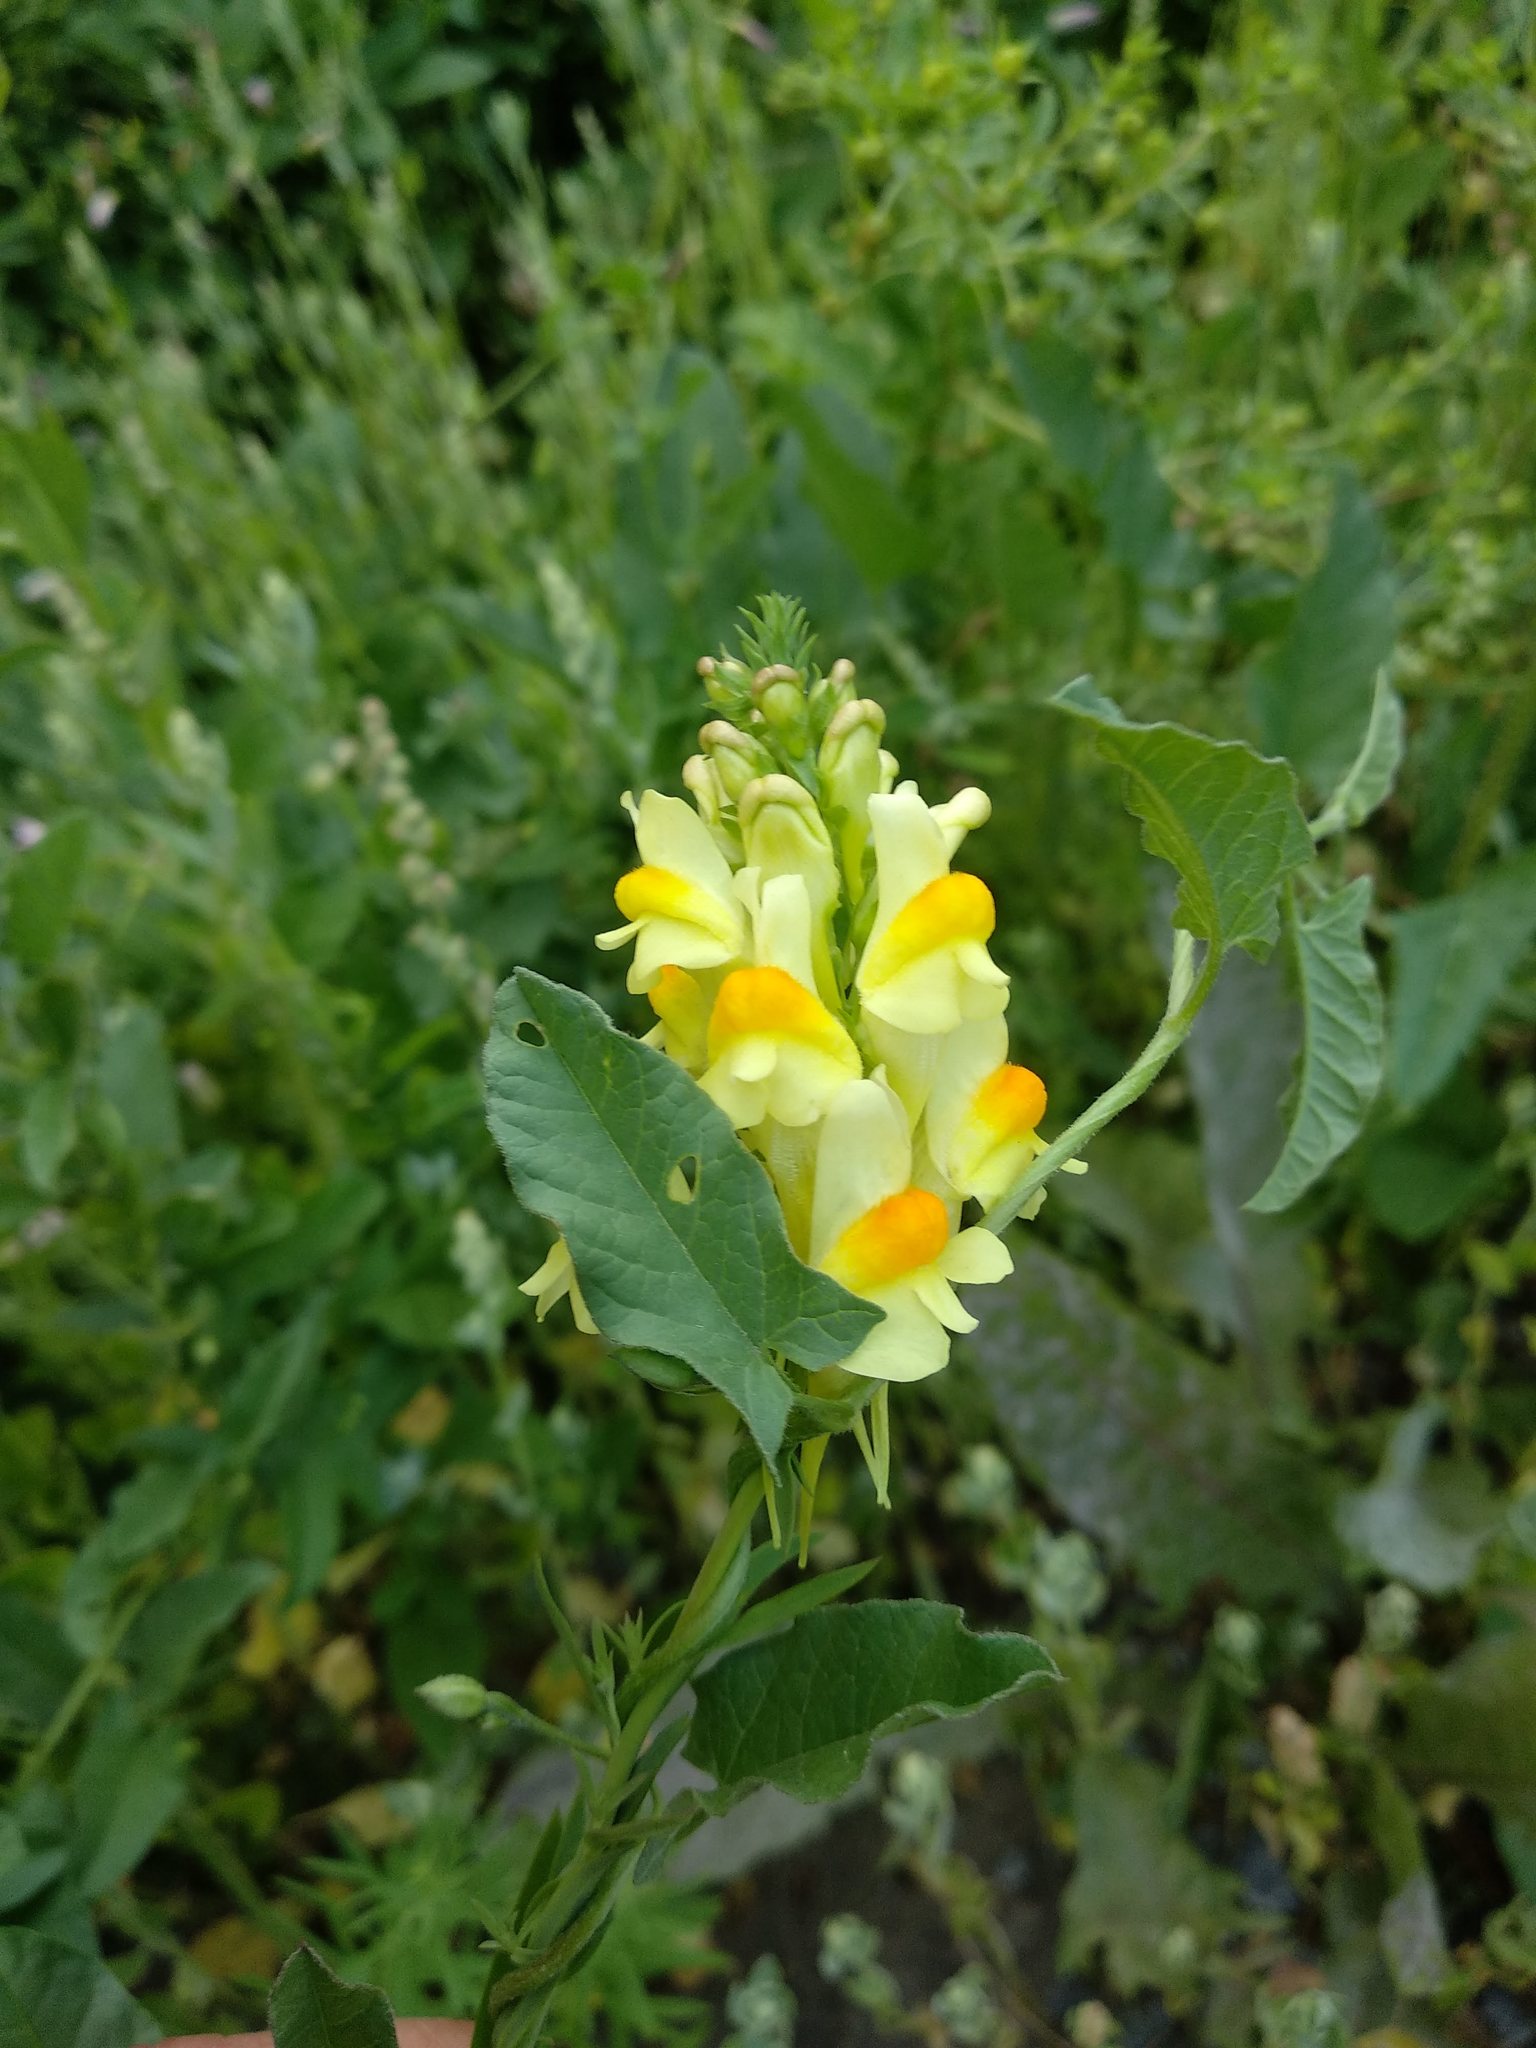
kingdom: Plantae
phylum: Tracheophyta
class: Magnoliopsida
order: Lamiales
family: Plantaginaceae
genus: Linaria
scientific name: Linaria vulgaris
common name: Butter and eggs
